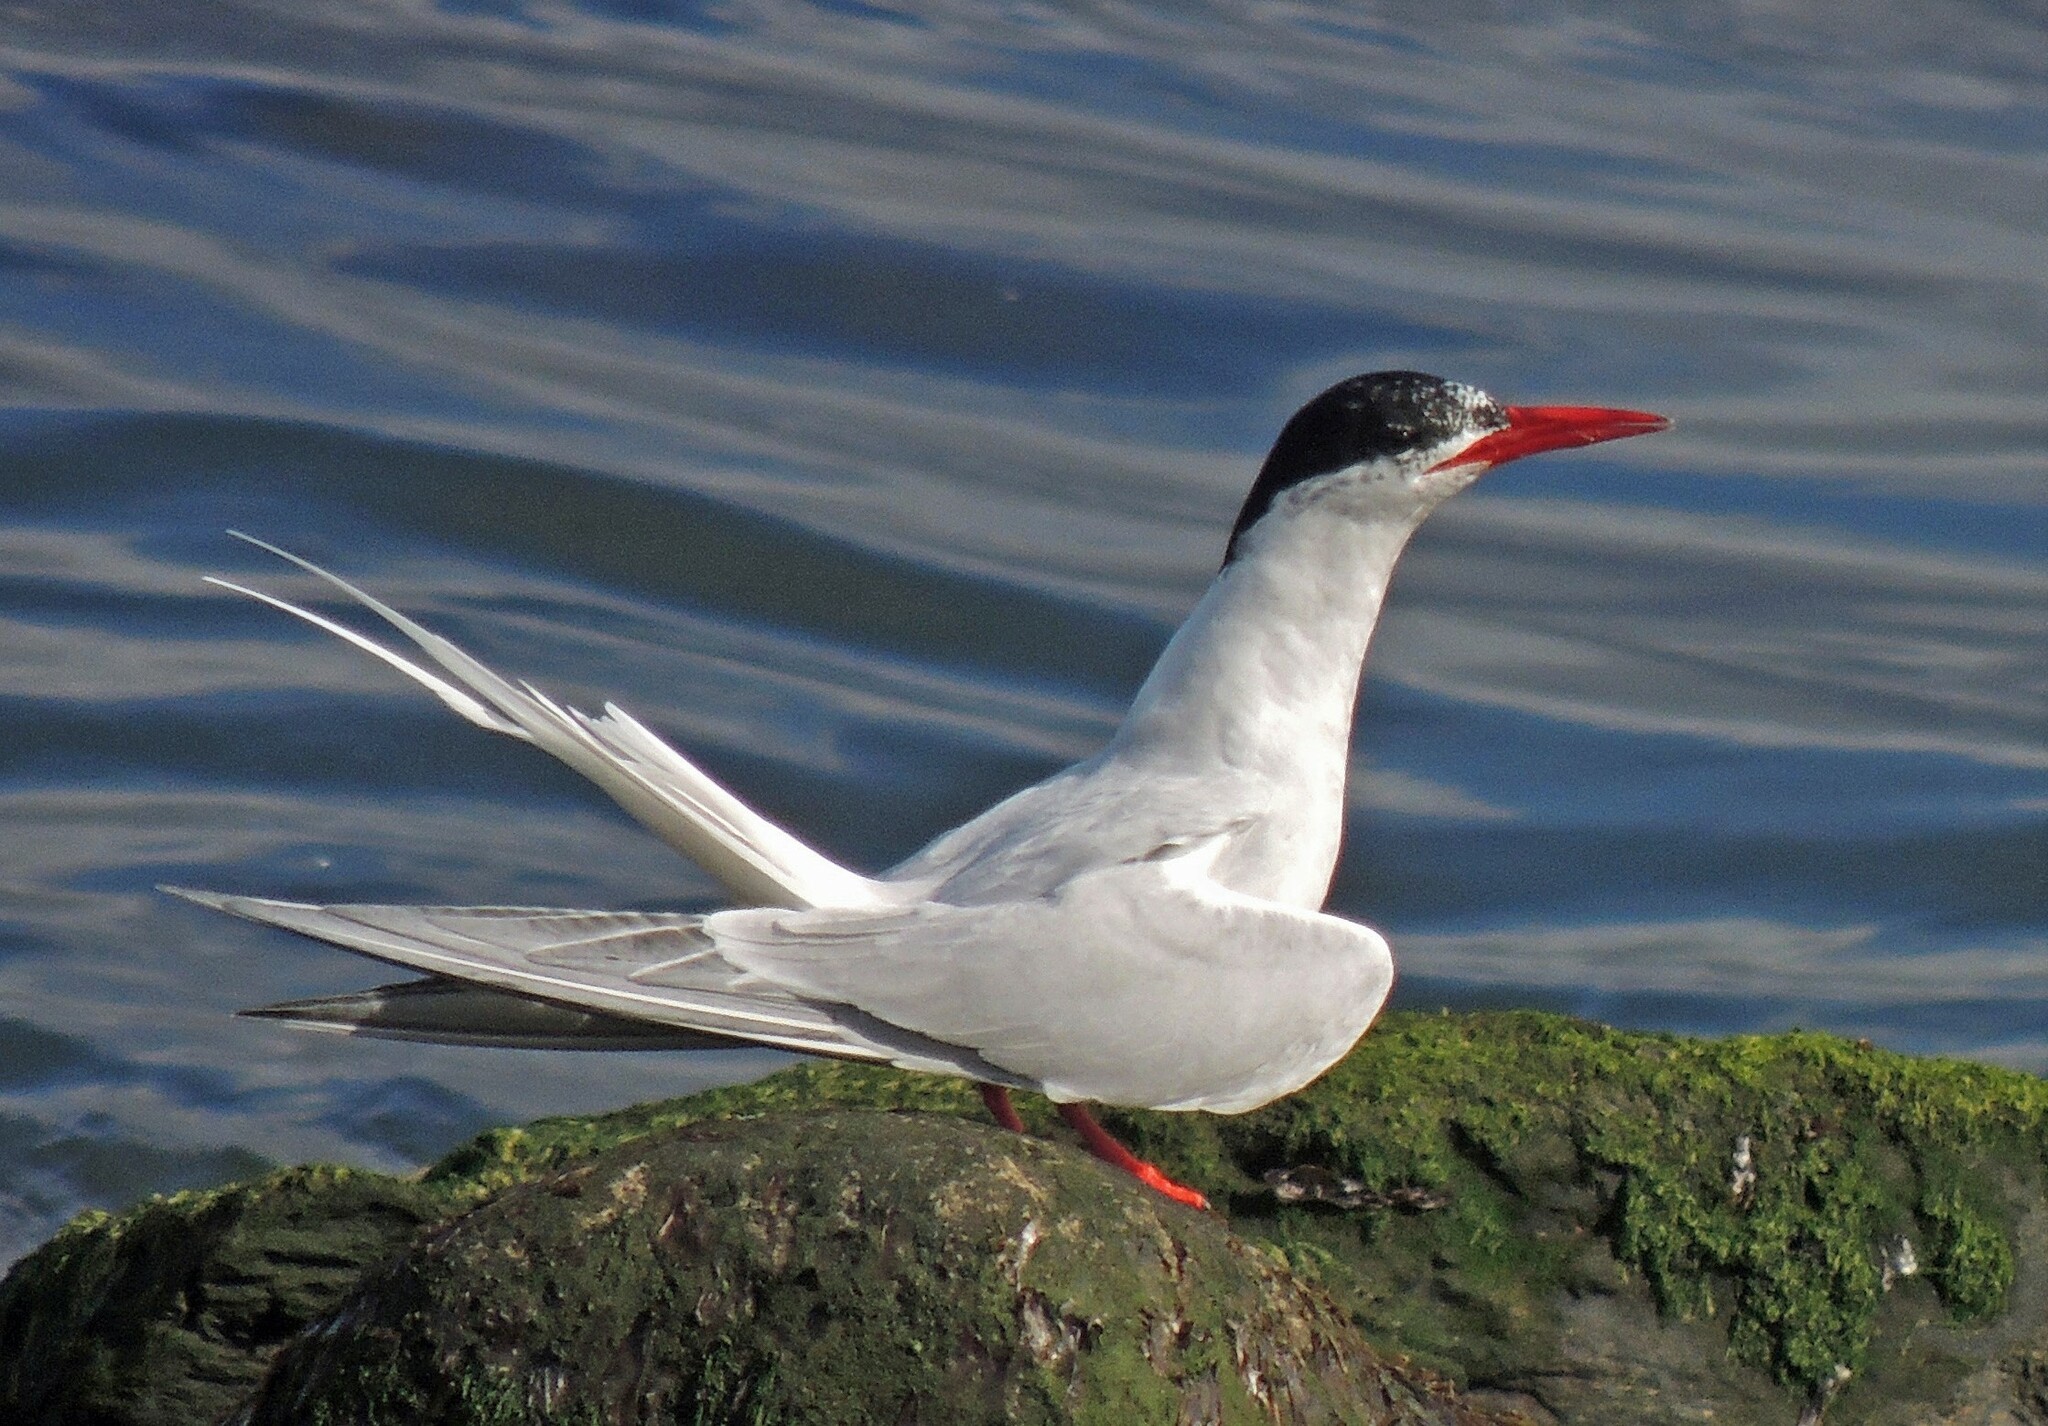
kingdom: Animalia
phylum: Chordata
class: Aves
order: Charadriiformes
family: Laridae
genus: Sterna
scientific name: Sterna hirundinacea
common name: South american tern
